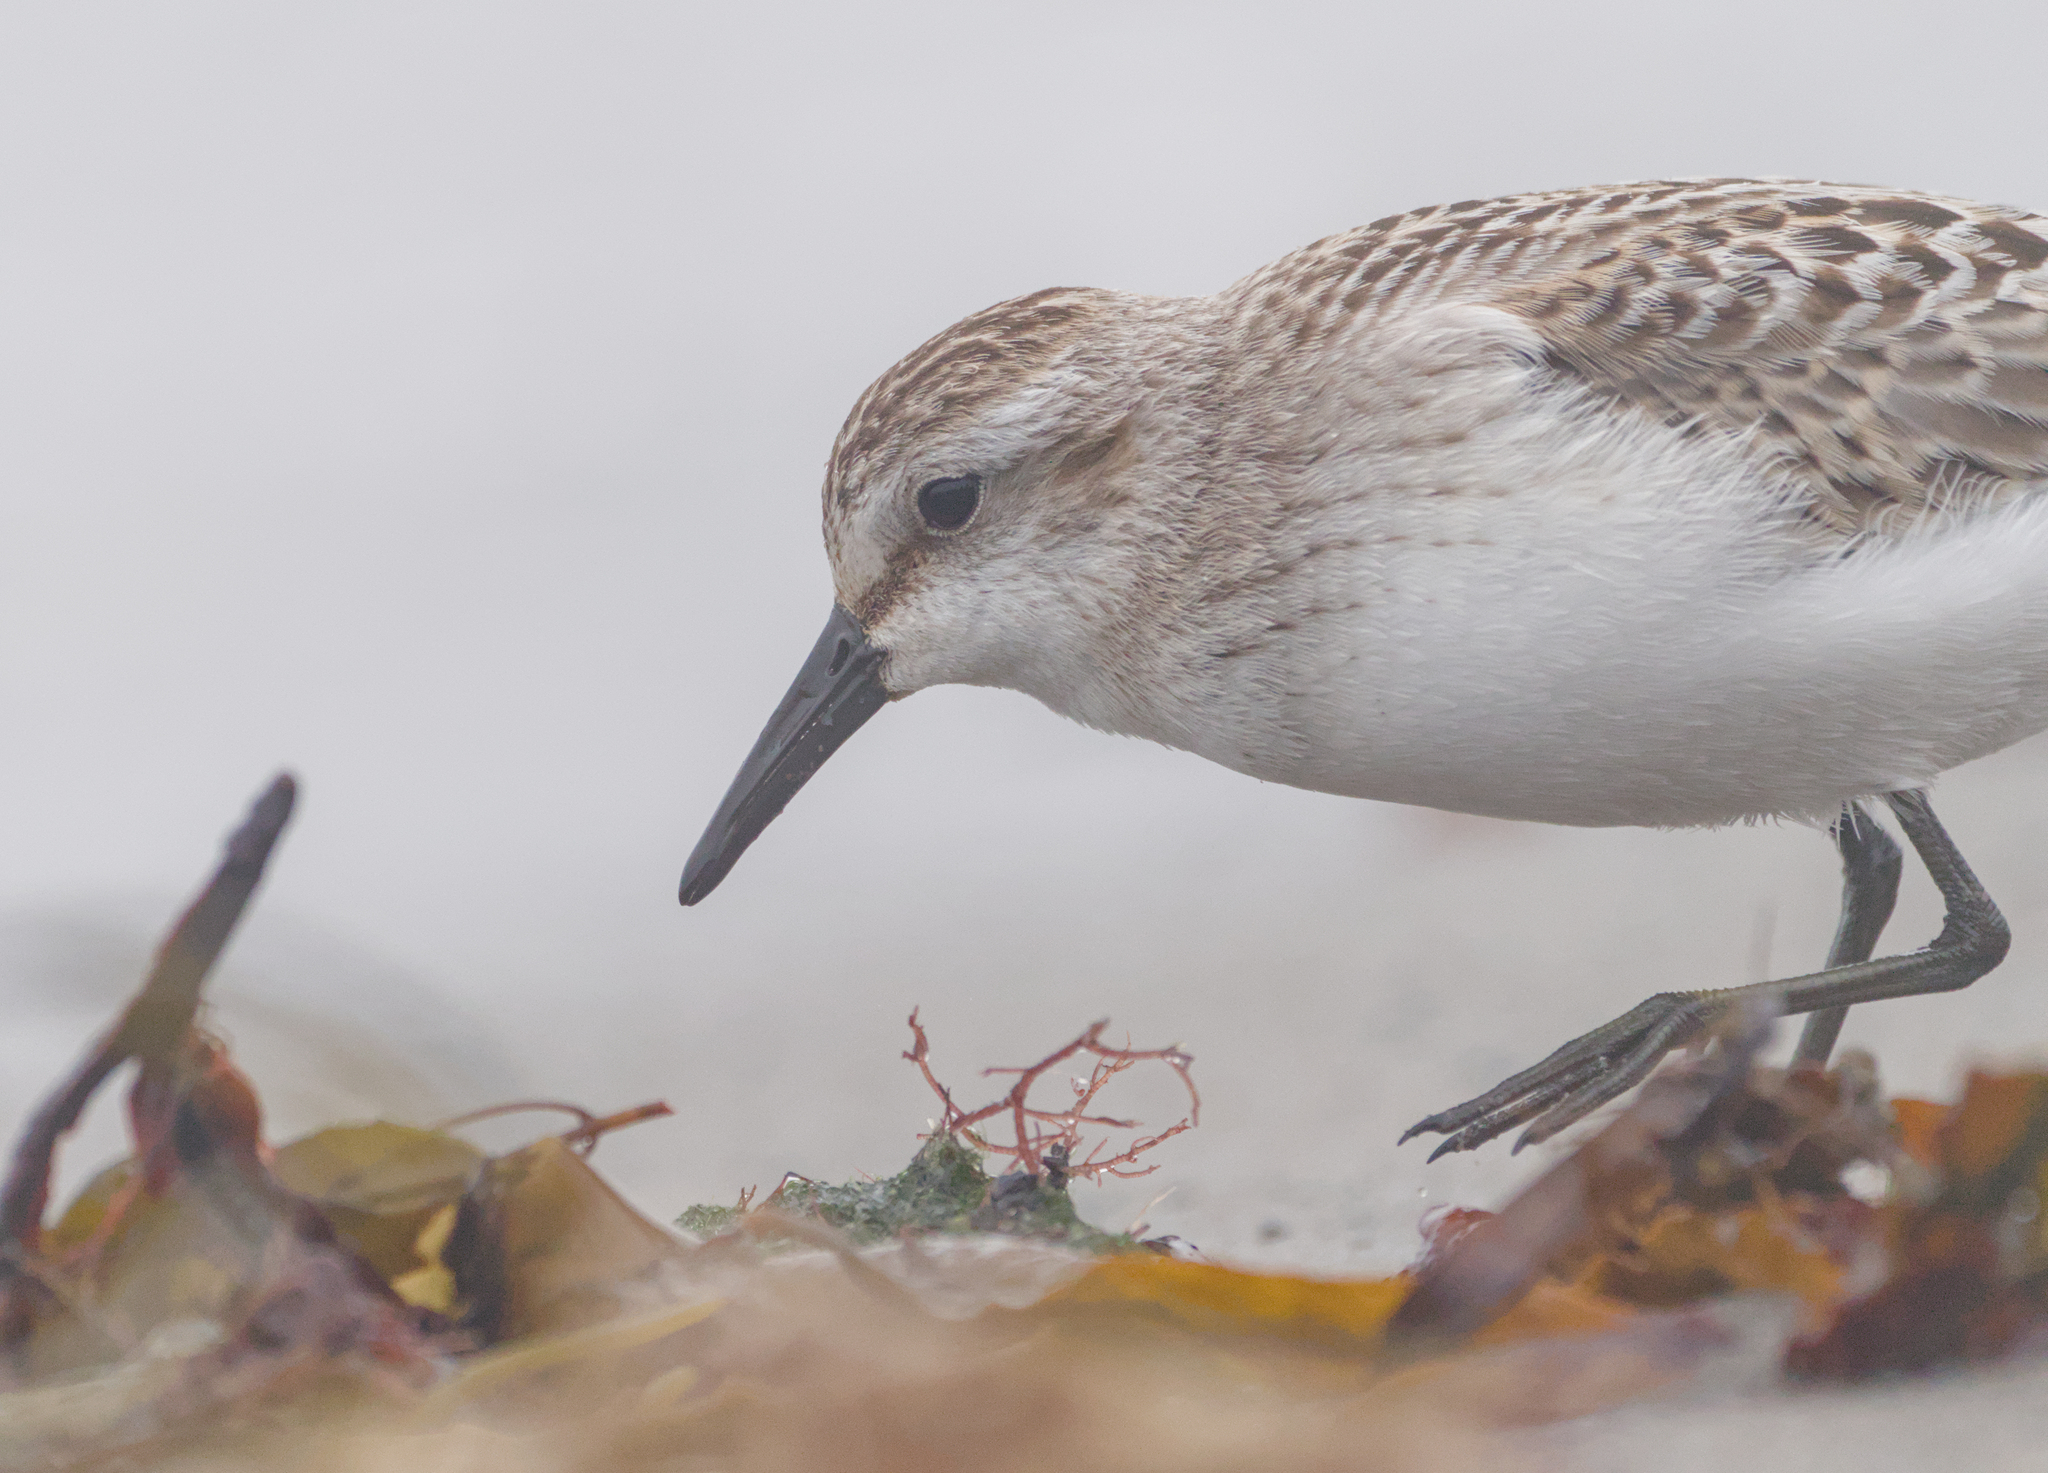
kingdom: Animalia
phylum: Chordata
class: Aves
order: Charadriiformes
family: Scolopacidae
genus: Calidris
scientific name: Calidris pusilla
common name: Semipalmated sandpiper
